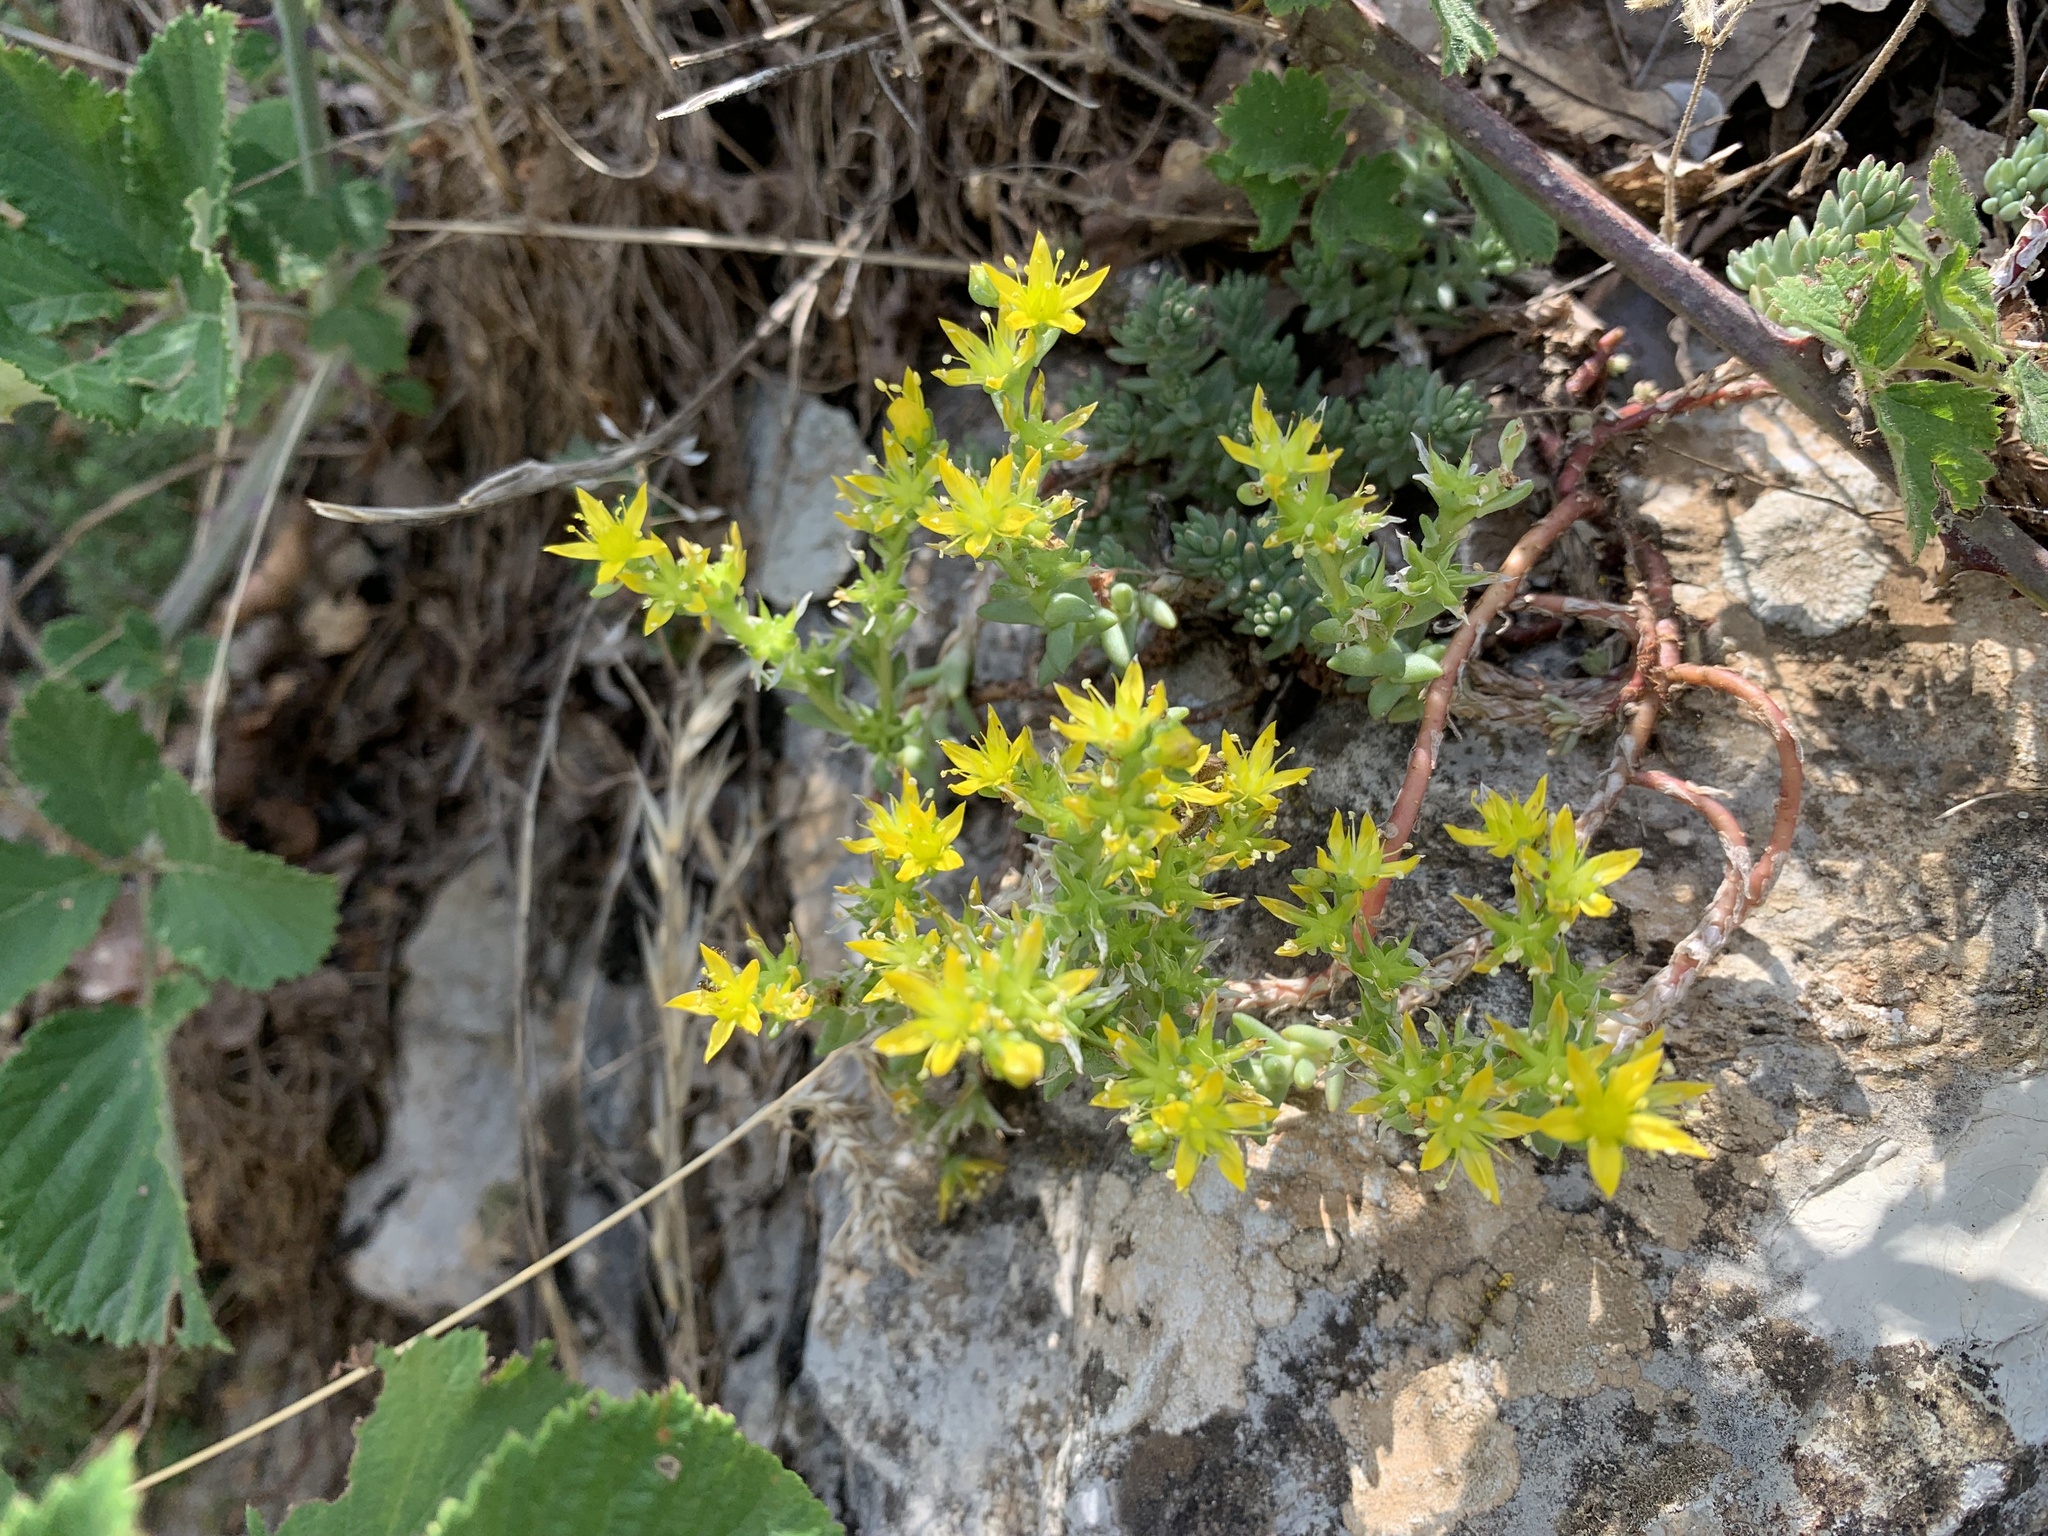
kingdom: Plantae
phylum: Tracheophyta
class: Magnoliopsida
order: Saxifragales
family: Crassulaceae
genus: Sedum
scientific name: Sedum urvillei
